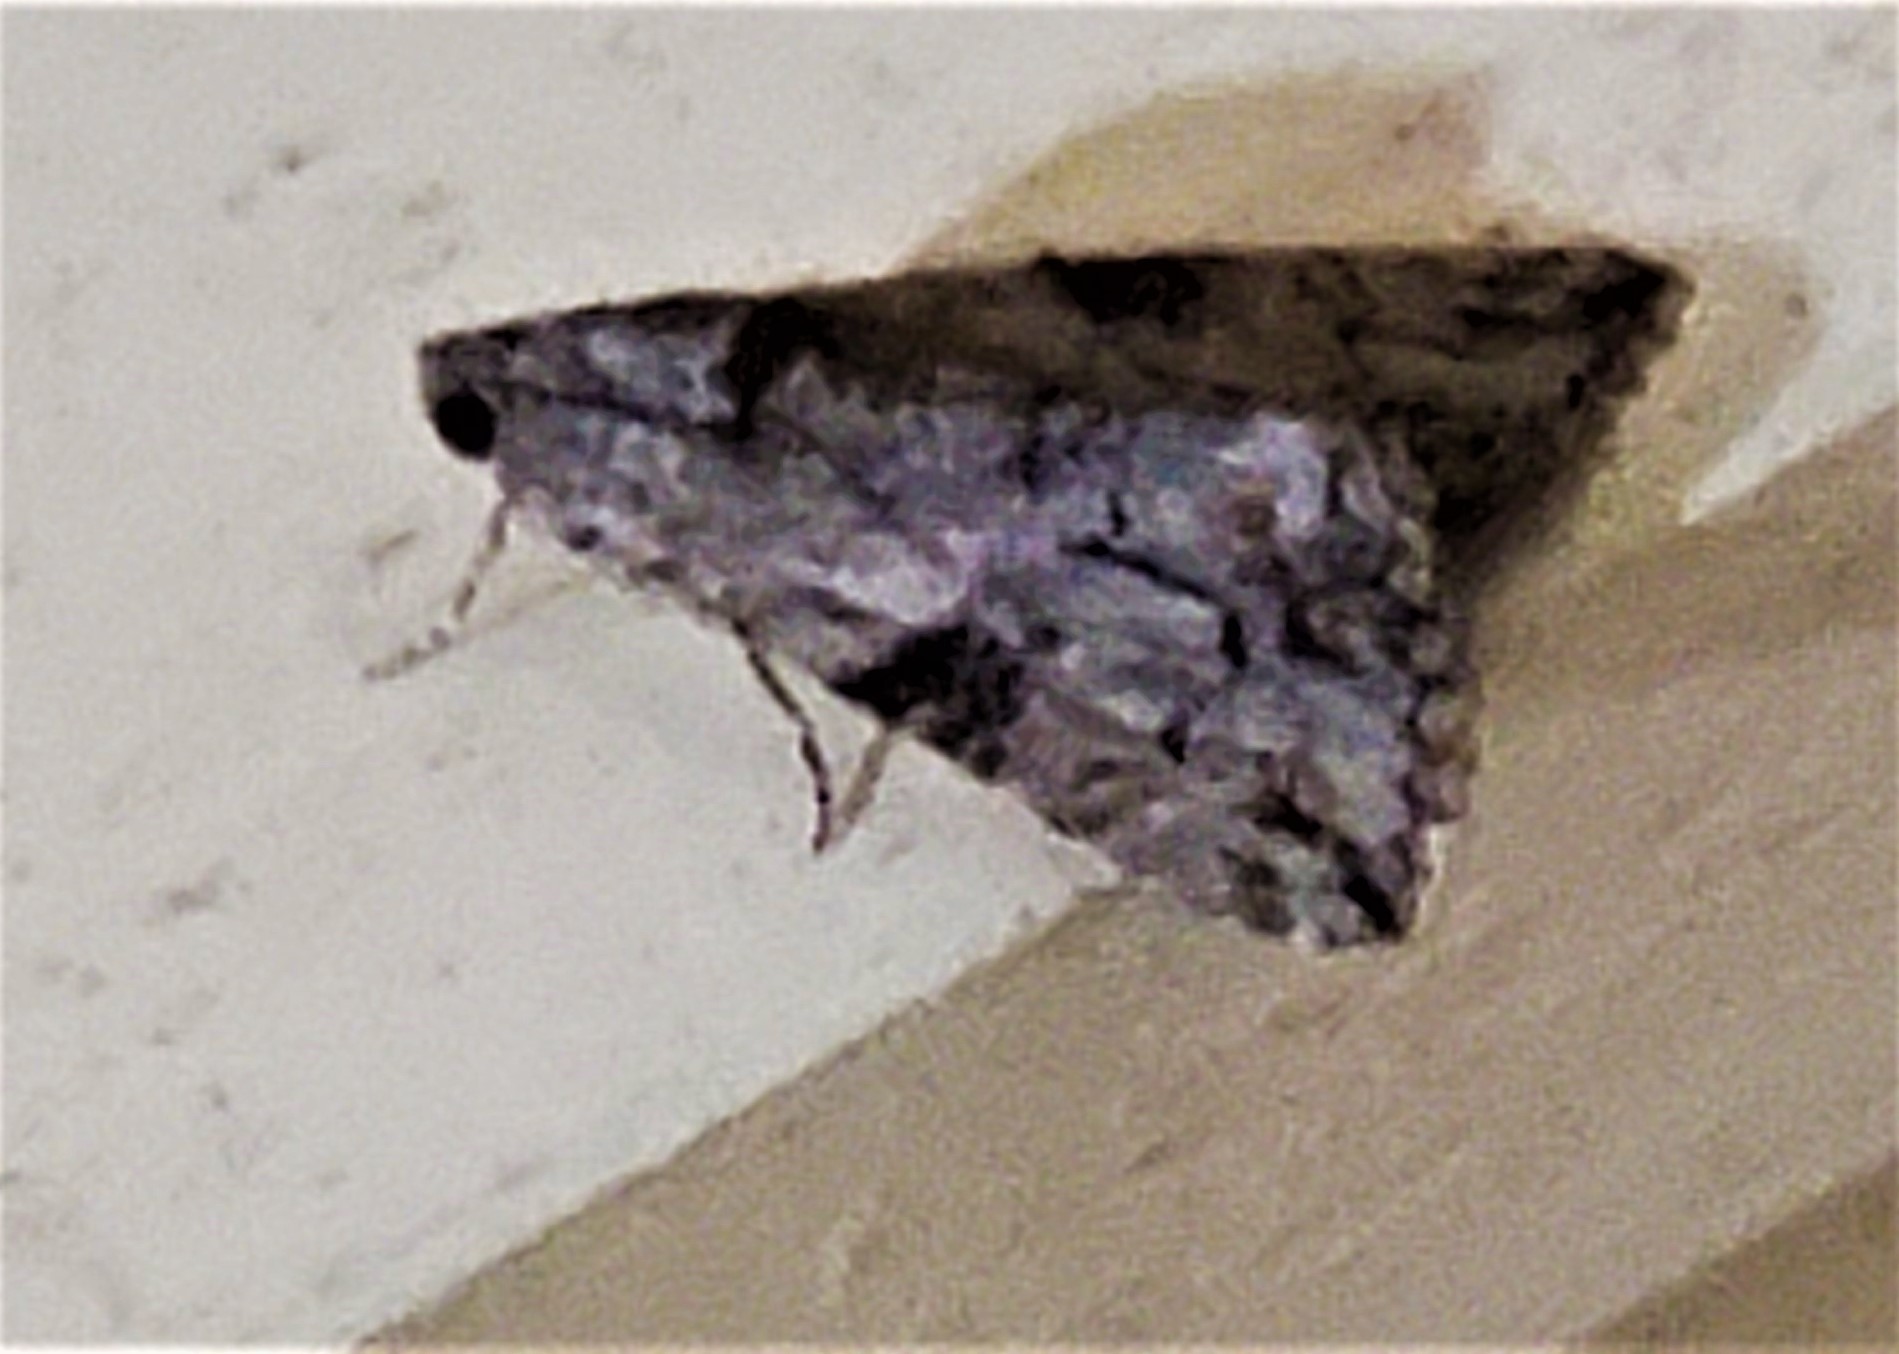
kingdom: Animalia
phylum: Arthropoda
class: Insecta
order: Lepidoptera
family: Erebidae
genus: Melipotis
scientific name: Melipotis jucunda
